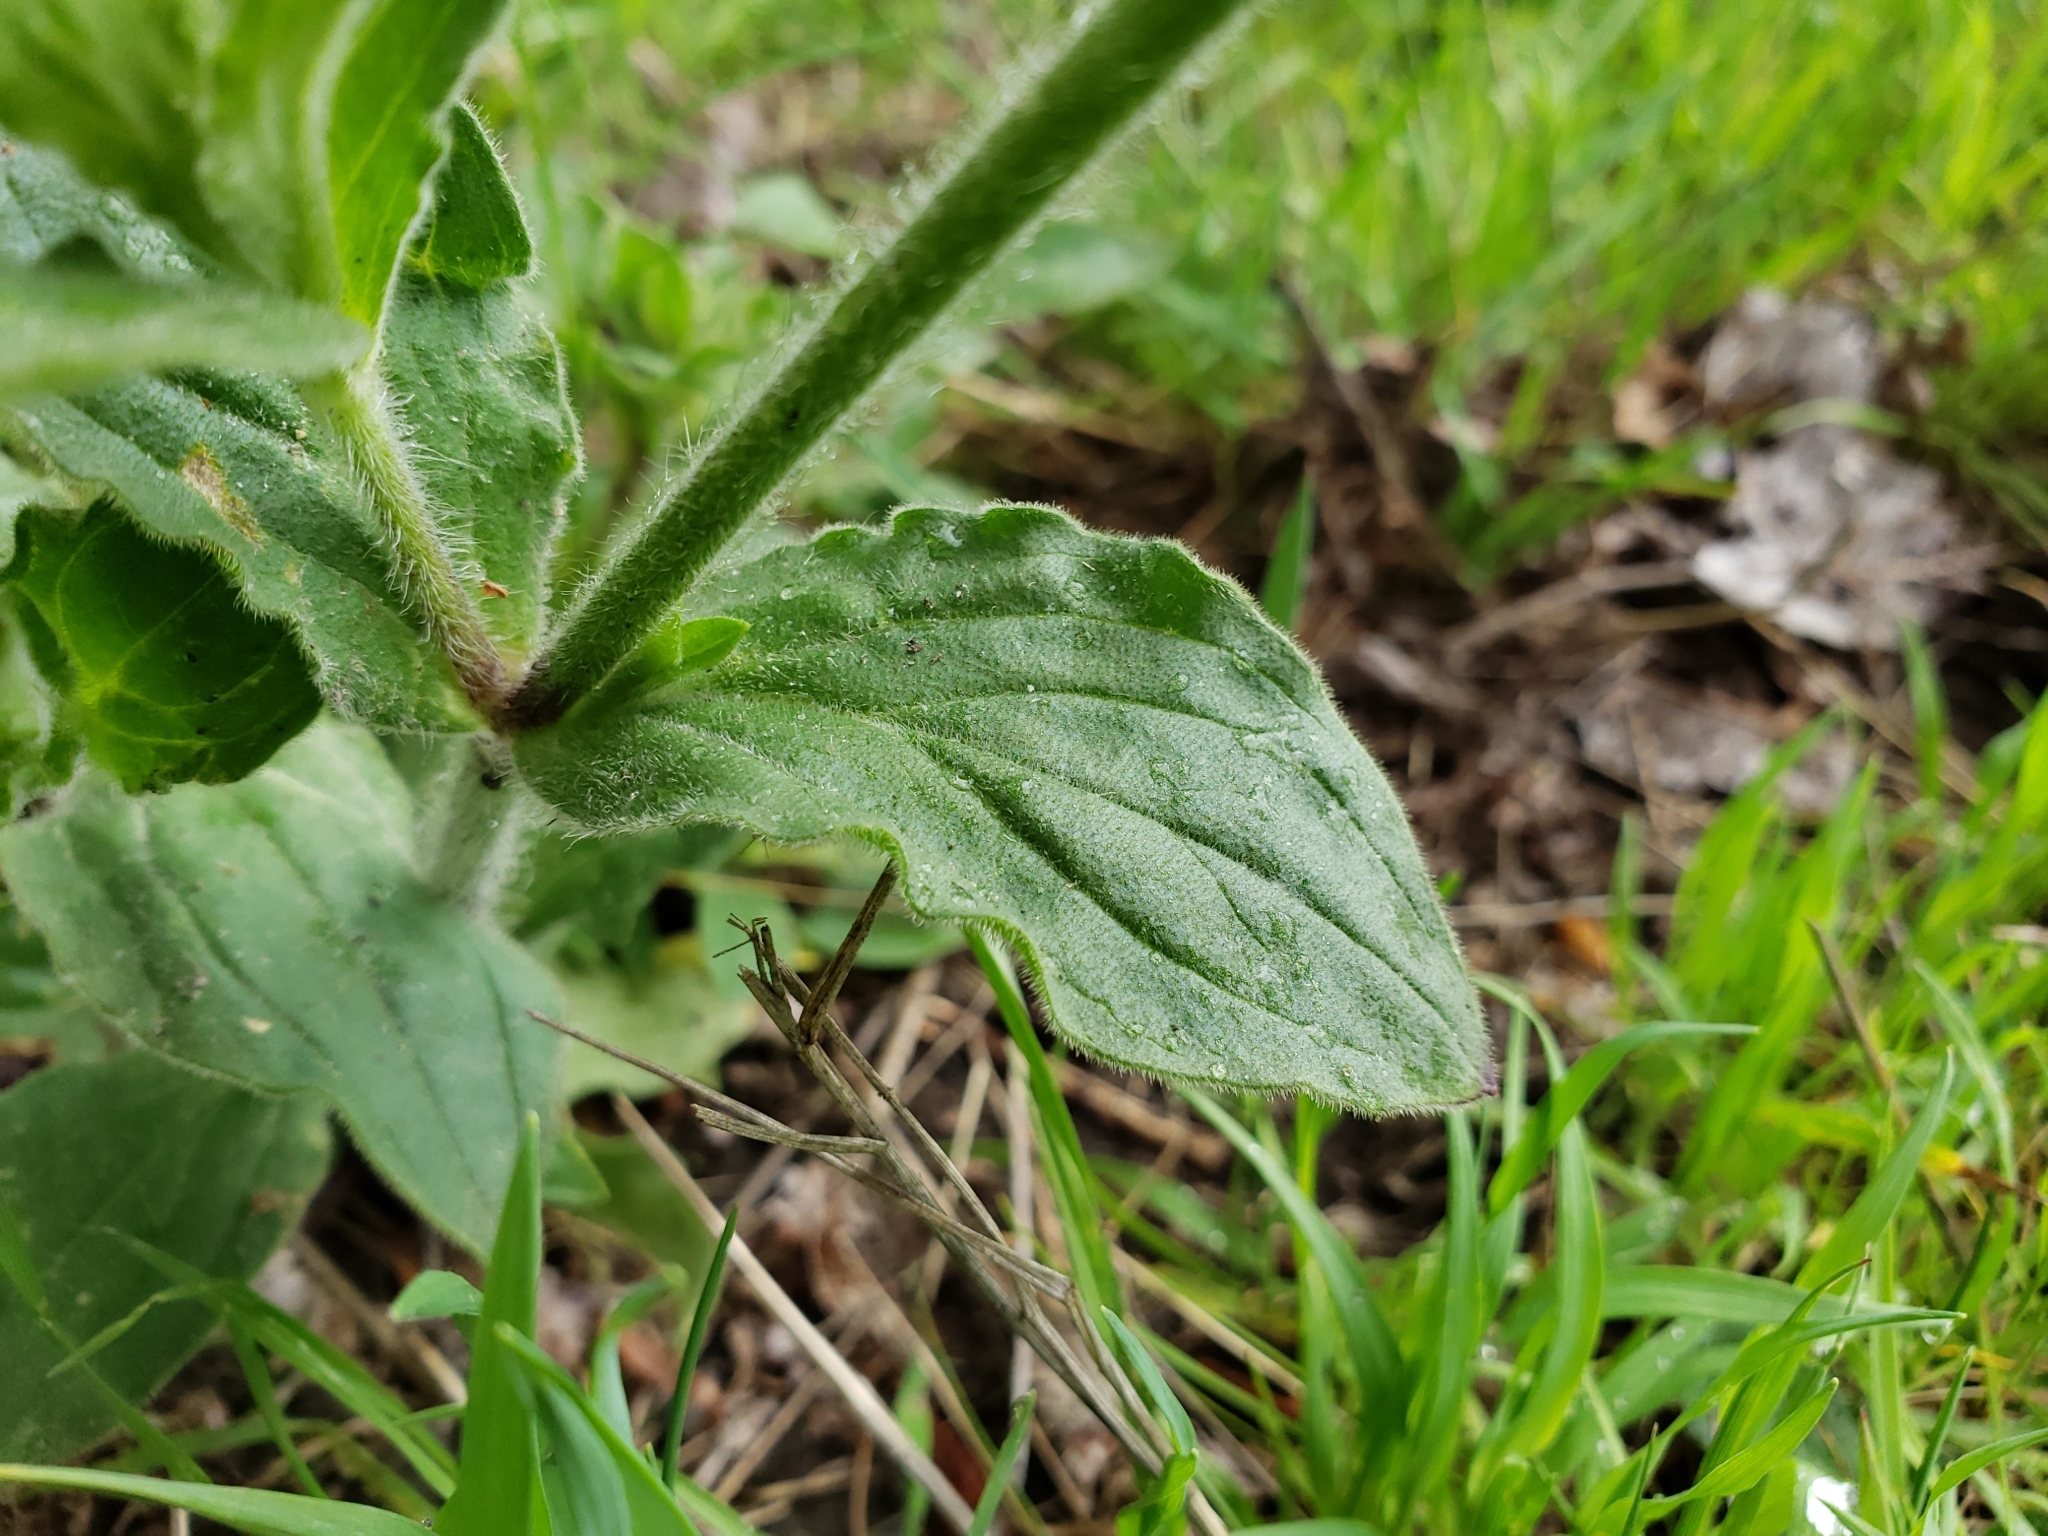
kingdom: Plantae
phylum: Tracheophyta
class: Magnoliopsida
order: Caryophyllales
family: Caryophyllaceae
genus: Silene
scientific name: Silene latifolia
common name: White campion
